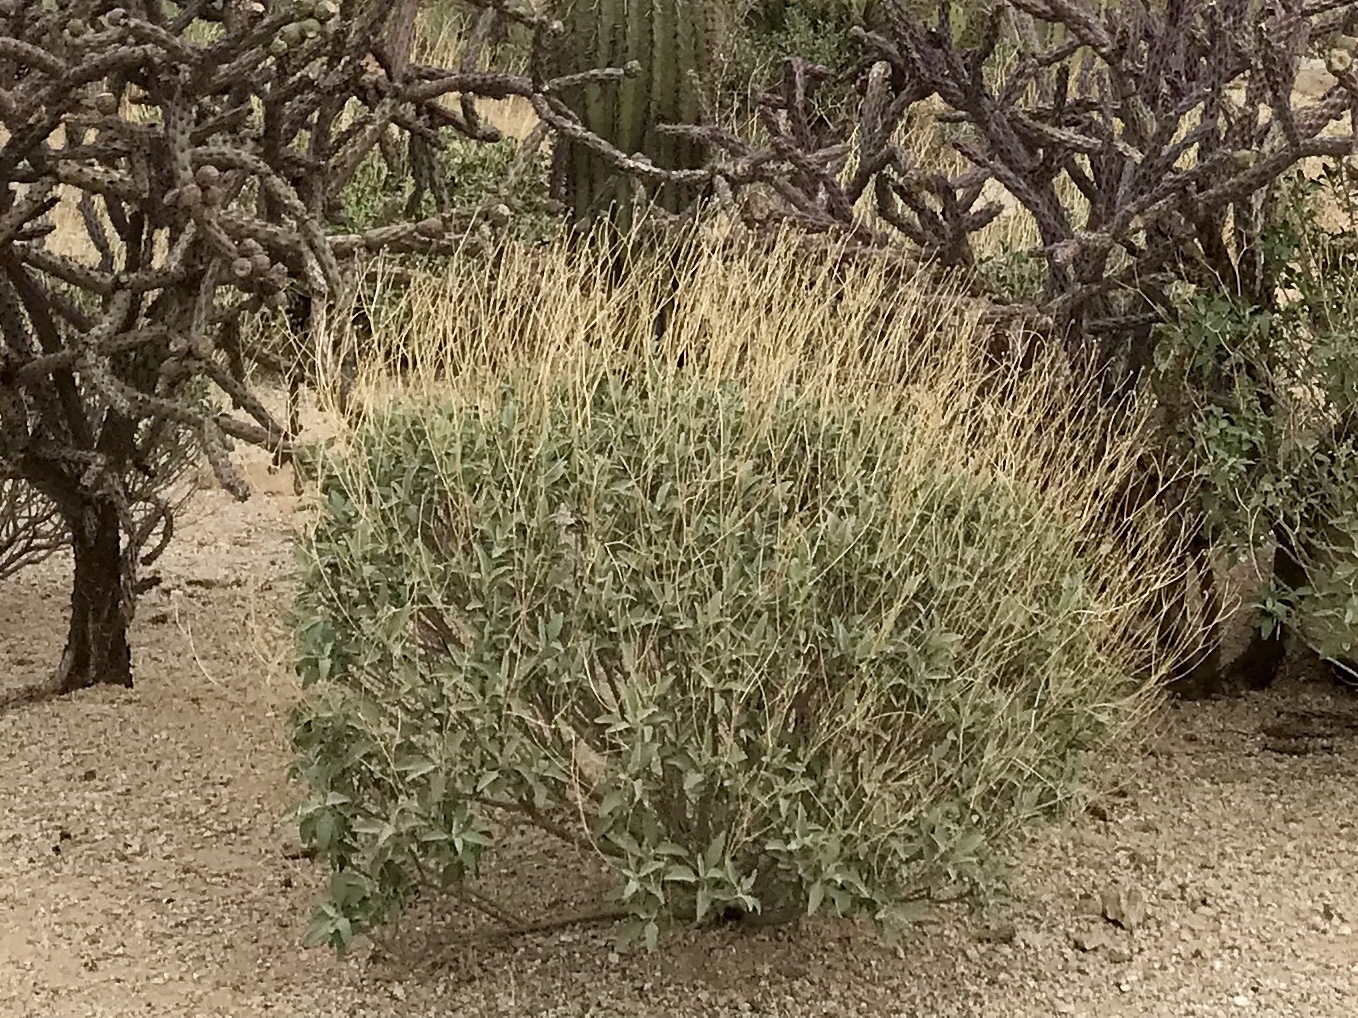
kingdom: Plantae
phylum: Tracheophyta
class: Magnoliopsida
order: Asterales
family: Asteraceae
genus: Encelia
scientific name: Encelia farinosa
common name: Brittlebush
